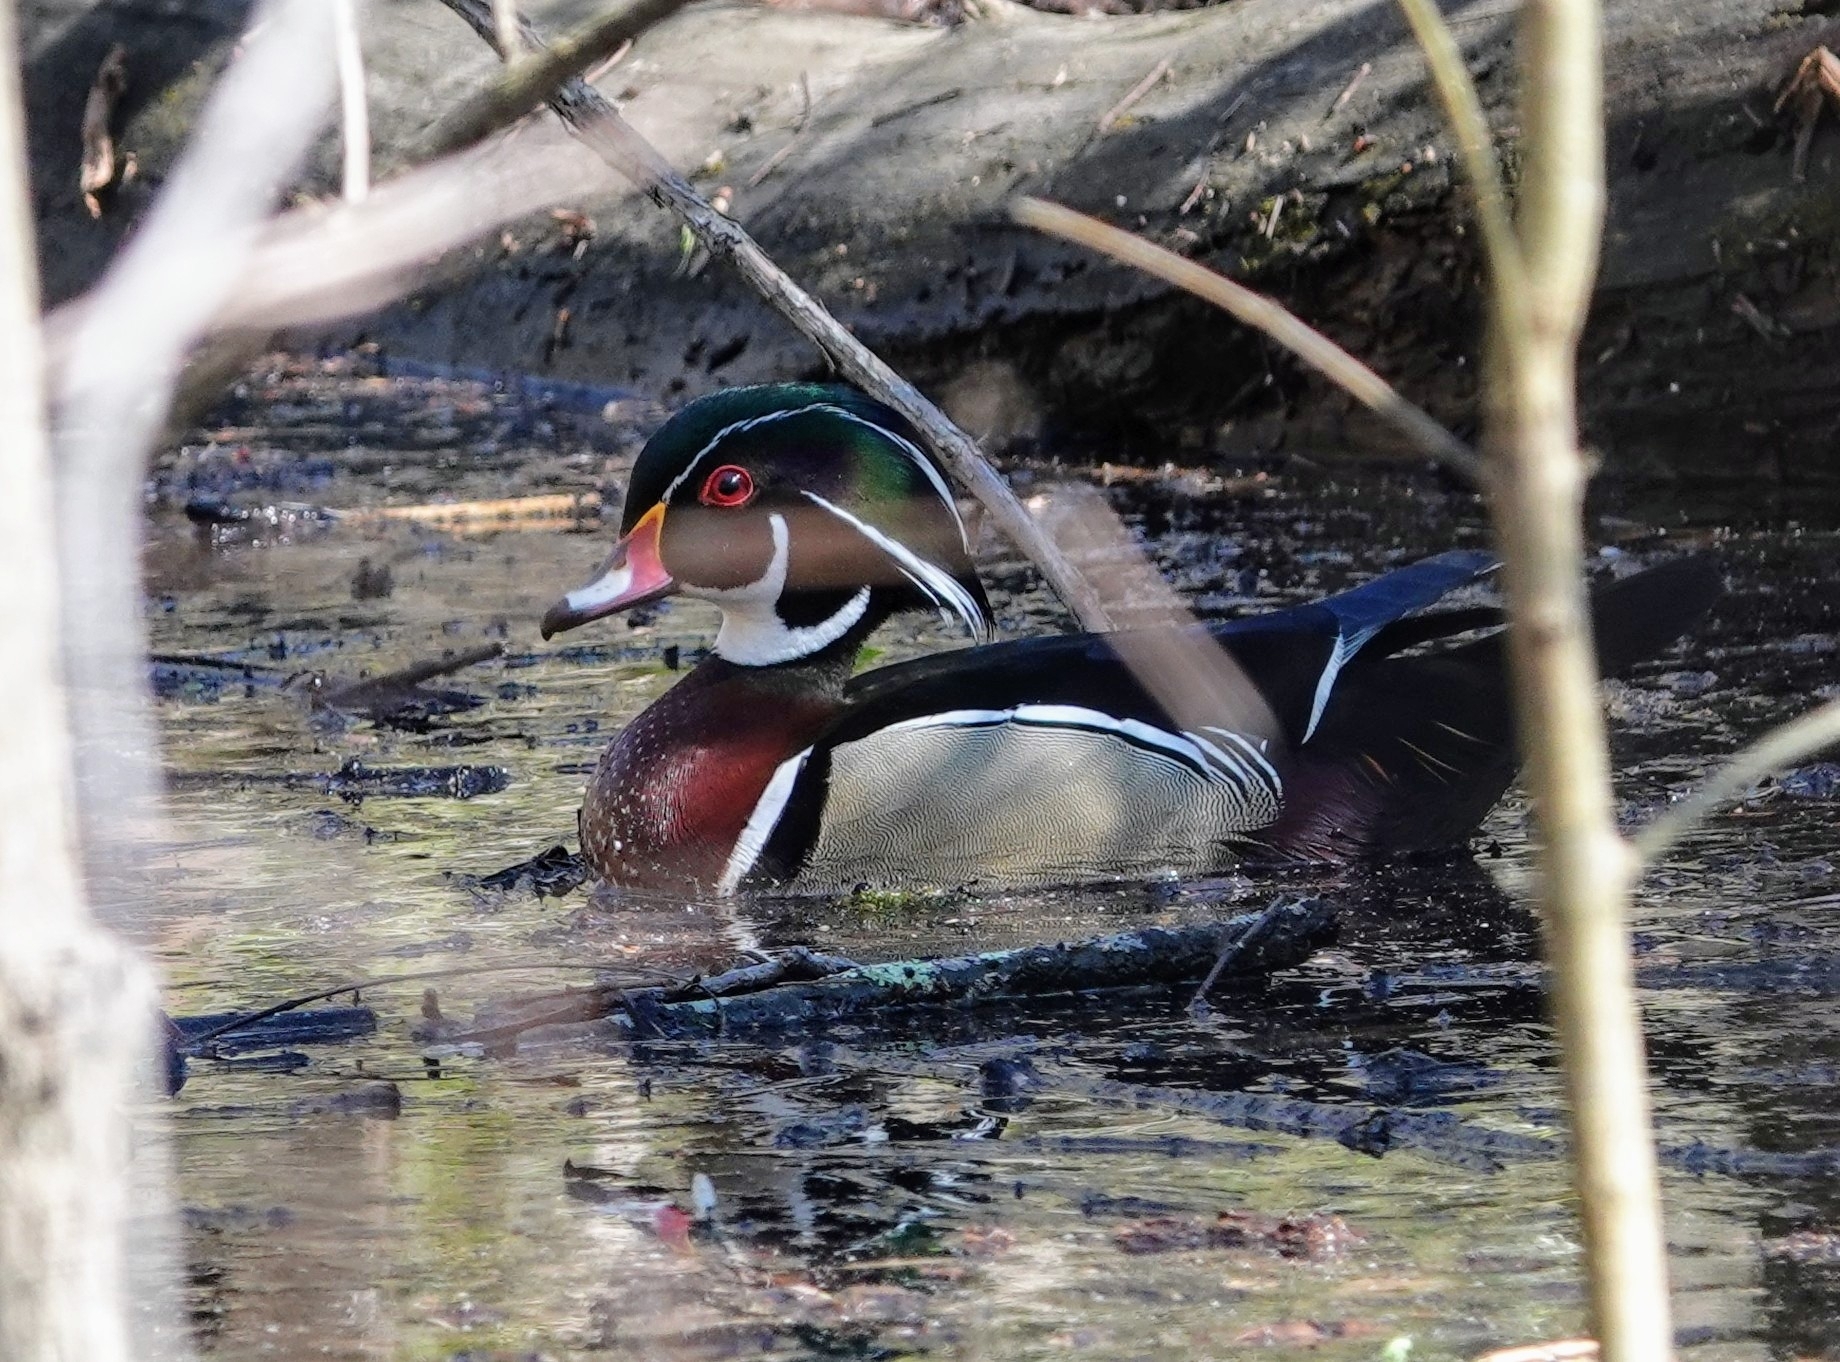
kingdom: Animalia
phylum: Chordata
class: Aves
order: Anseriformes
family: Anatidae
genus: Aix
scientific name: Aix sponsa
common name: Wood duck
